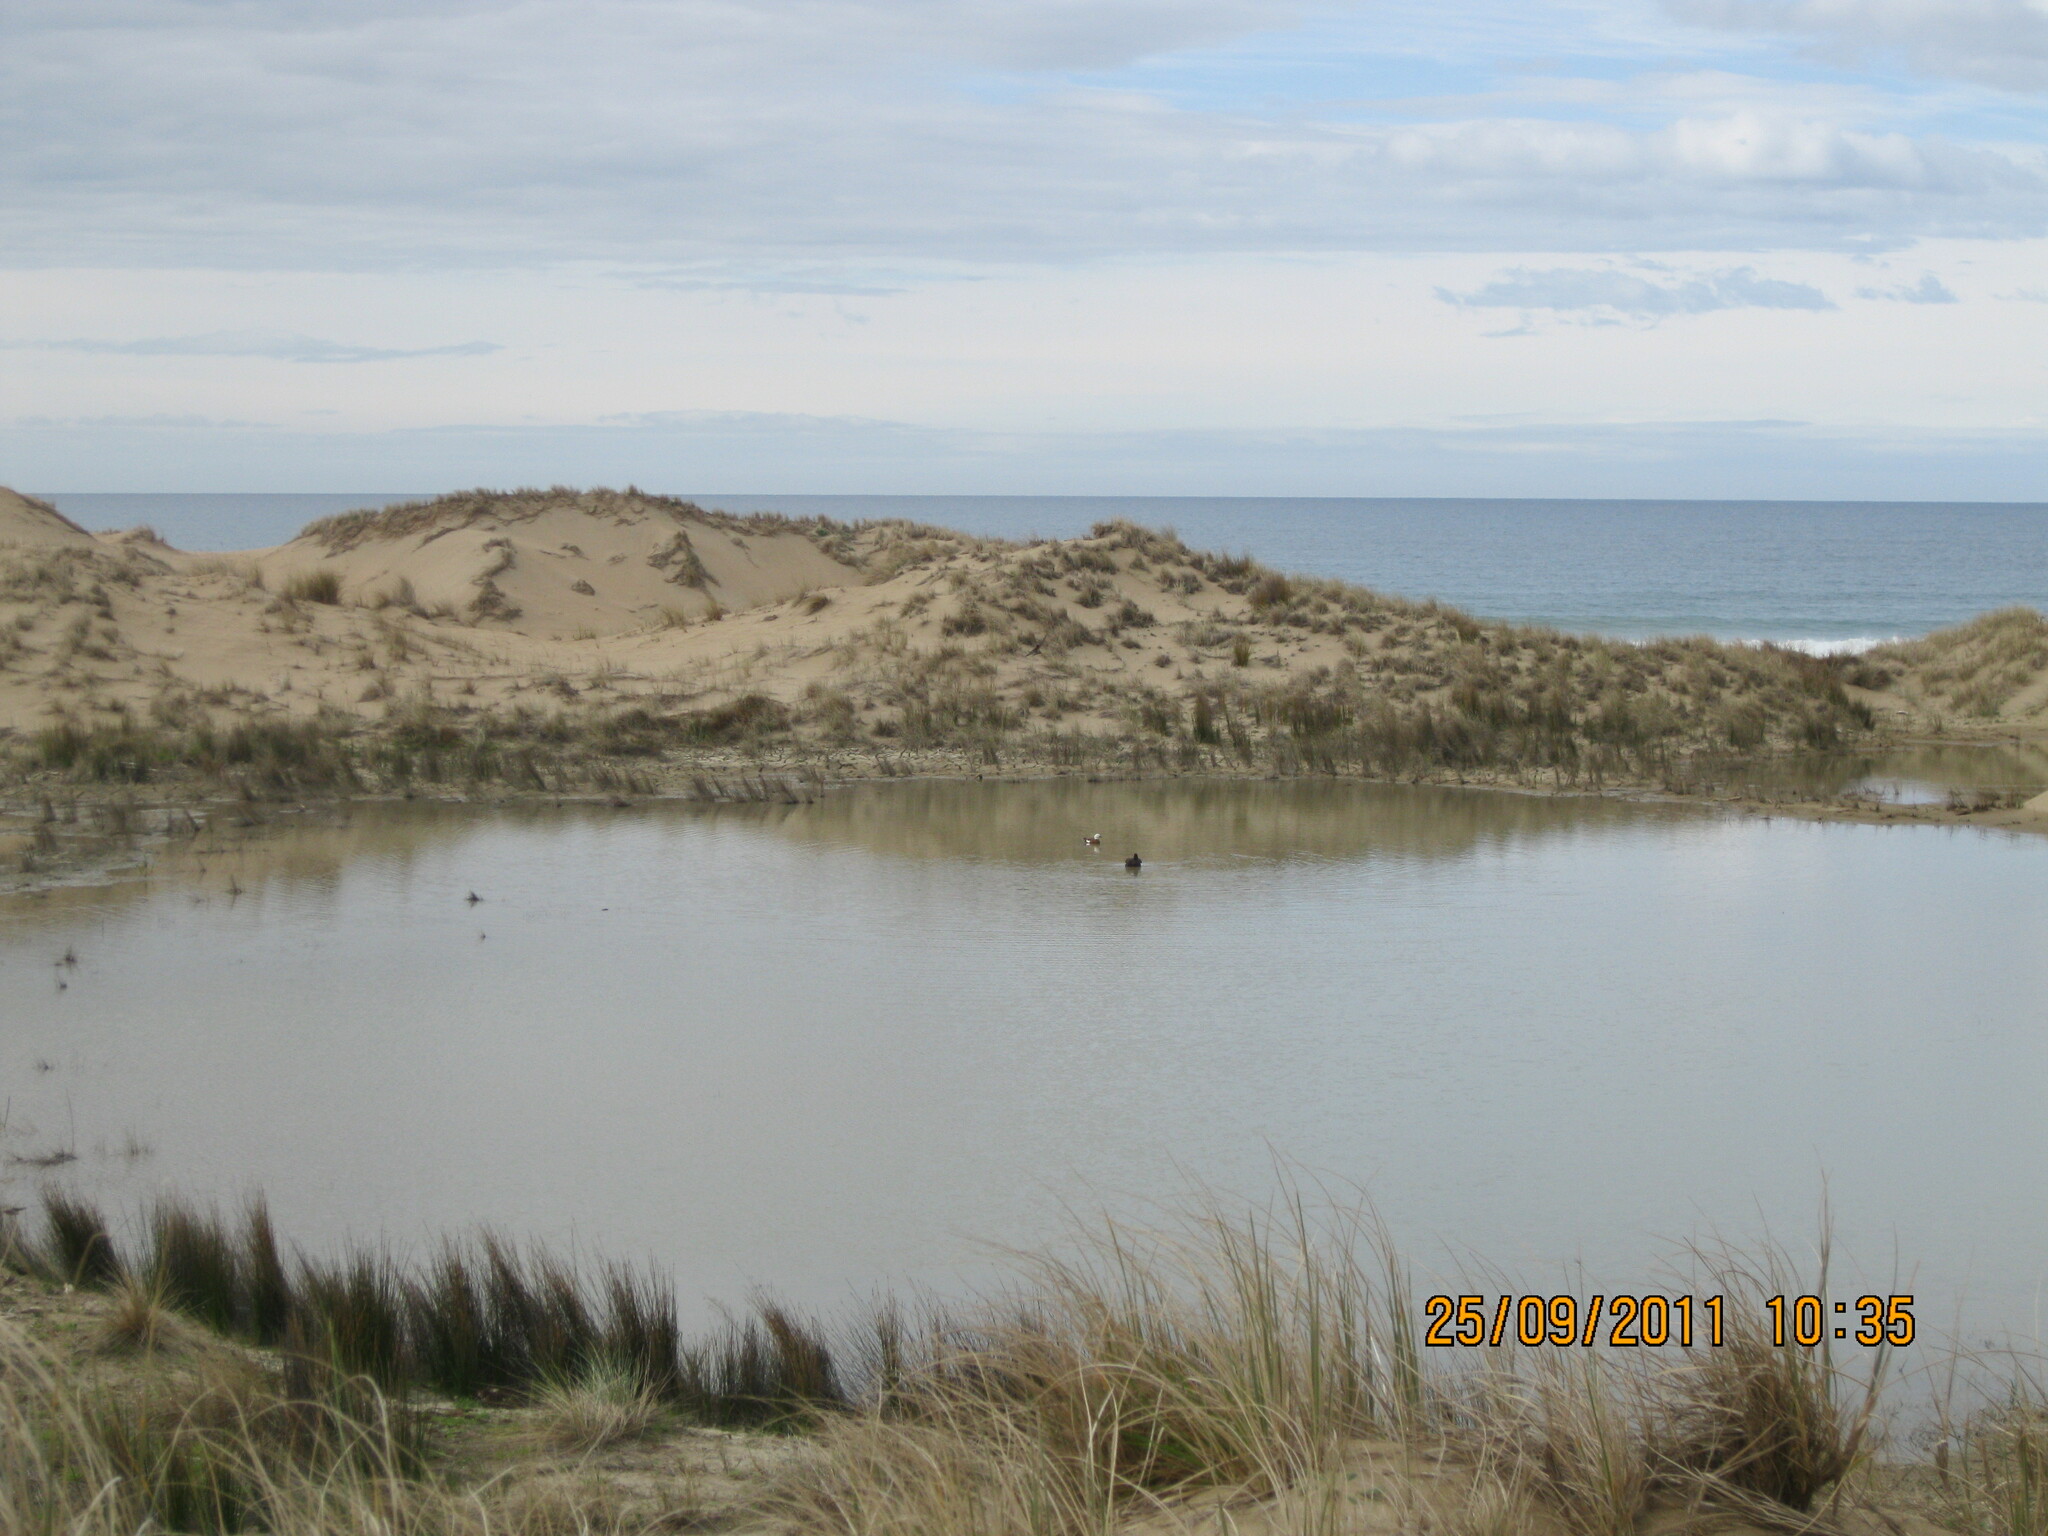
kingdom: Animalia
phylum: Chordata
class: Aves
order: Anseriformes
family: Anatidae
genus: Tadorna
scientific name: Tadorna variegata
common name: Paradise shelduck
